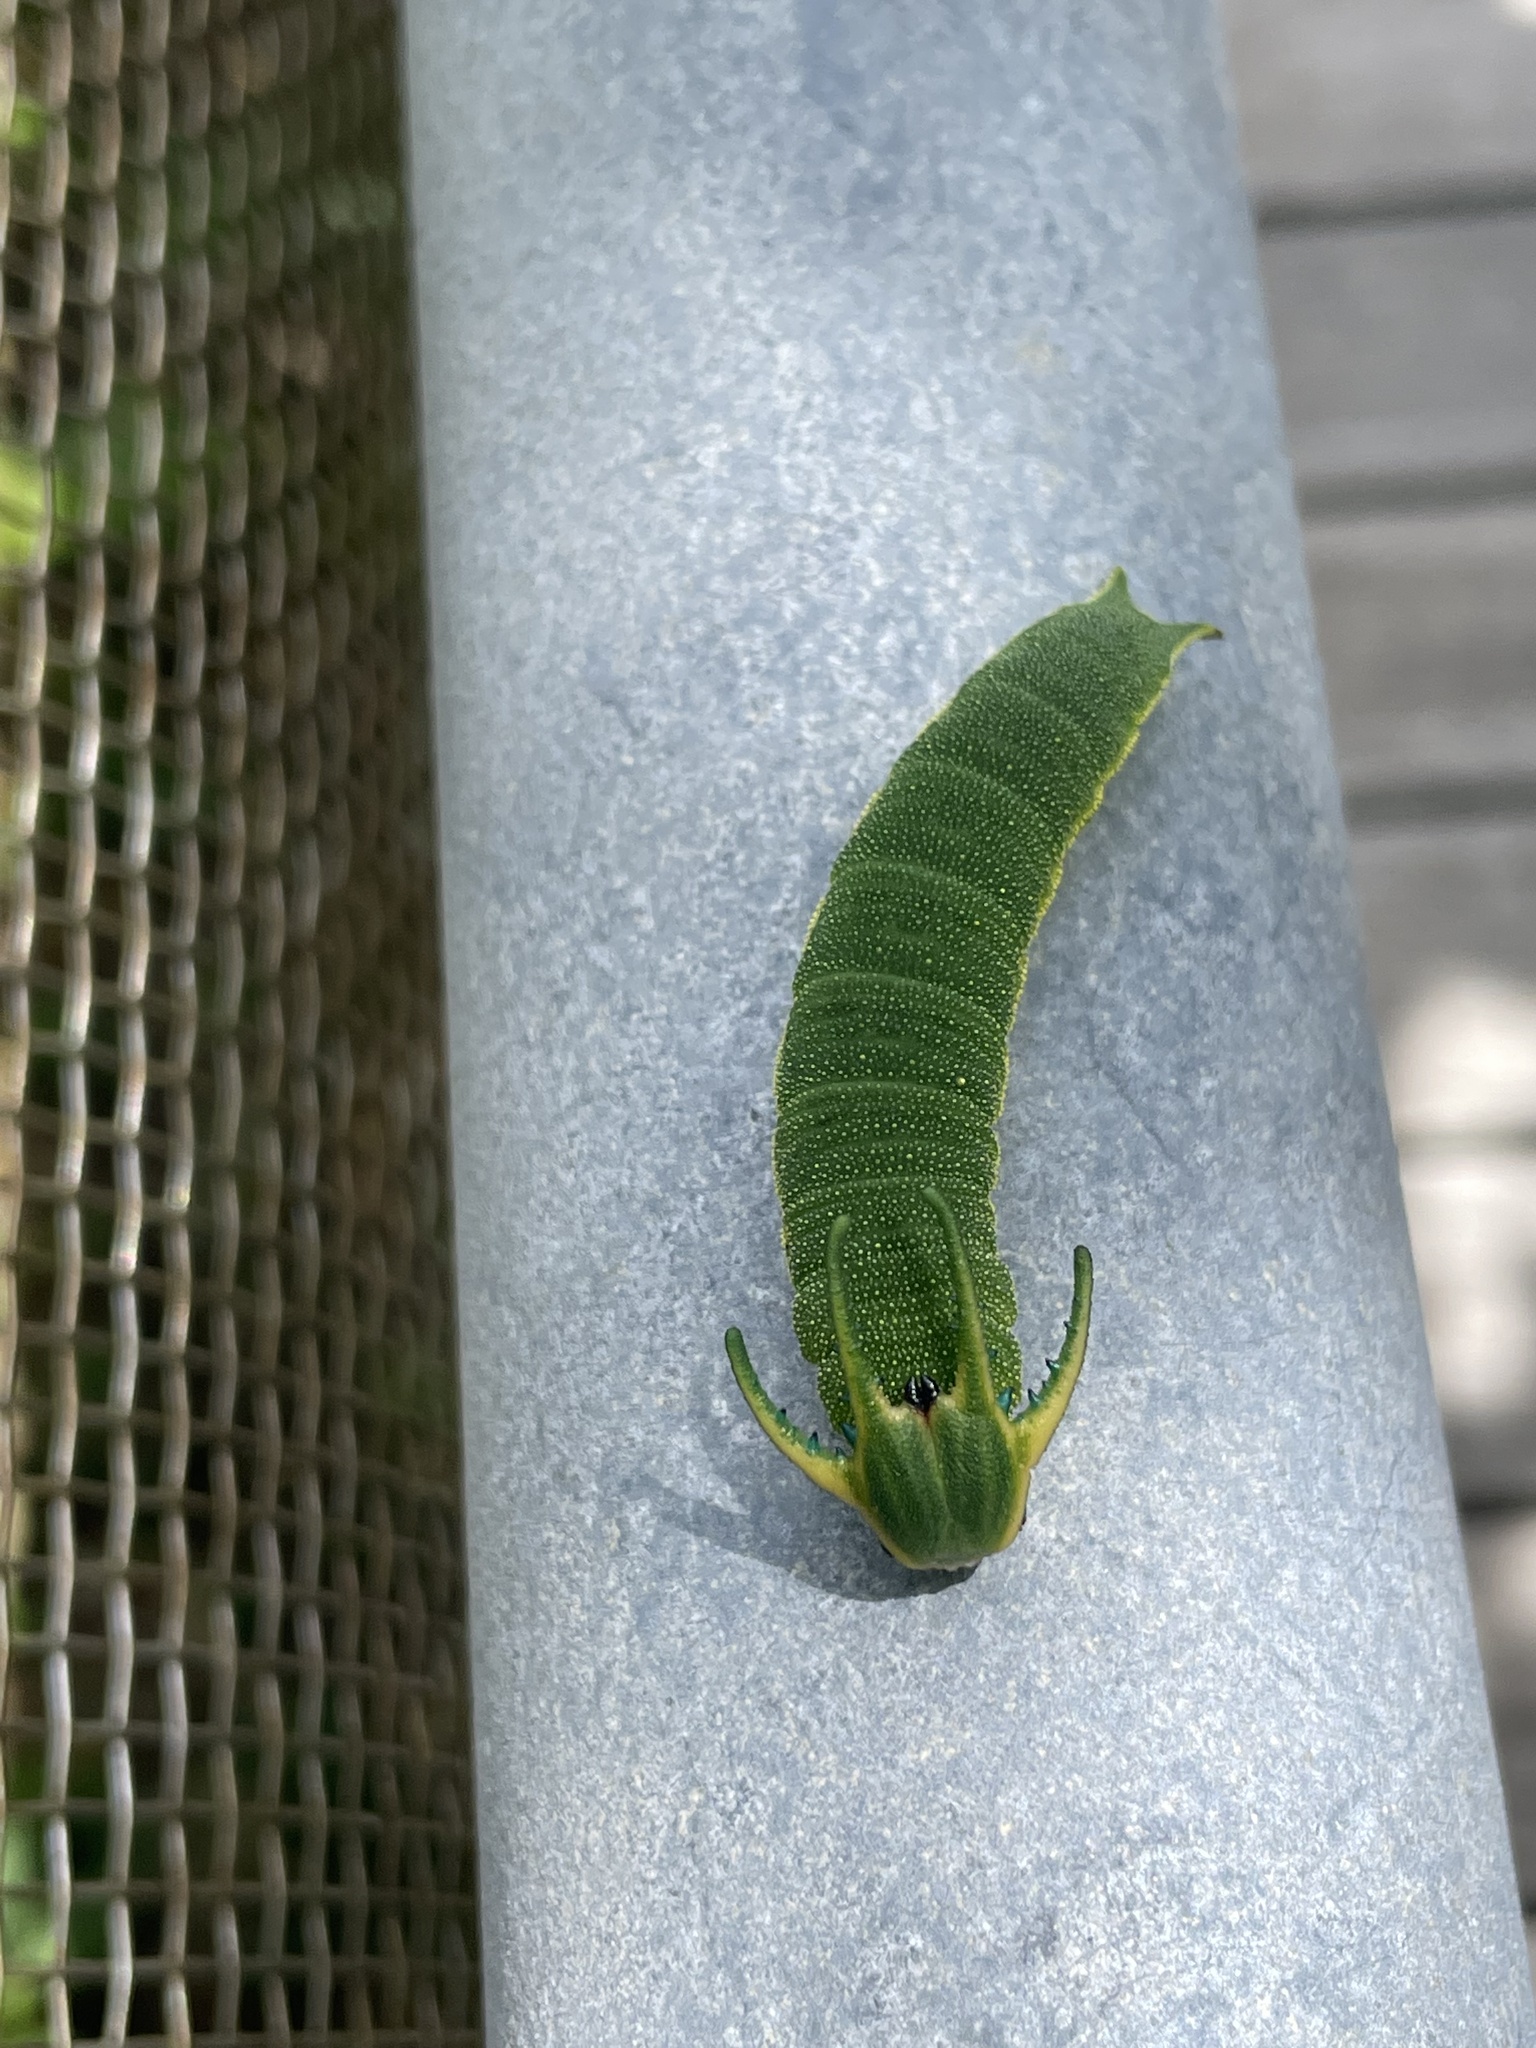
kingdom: Animalia
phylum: Arthropoda
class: Insecta
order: Lepidoptera
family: Nymphalidae
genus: Polyura
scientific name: Polyura
